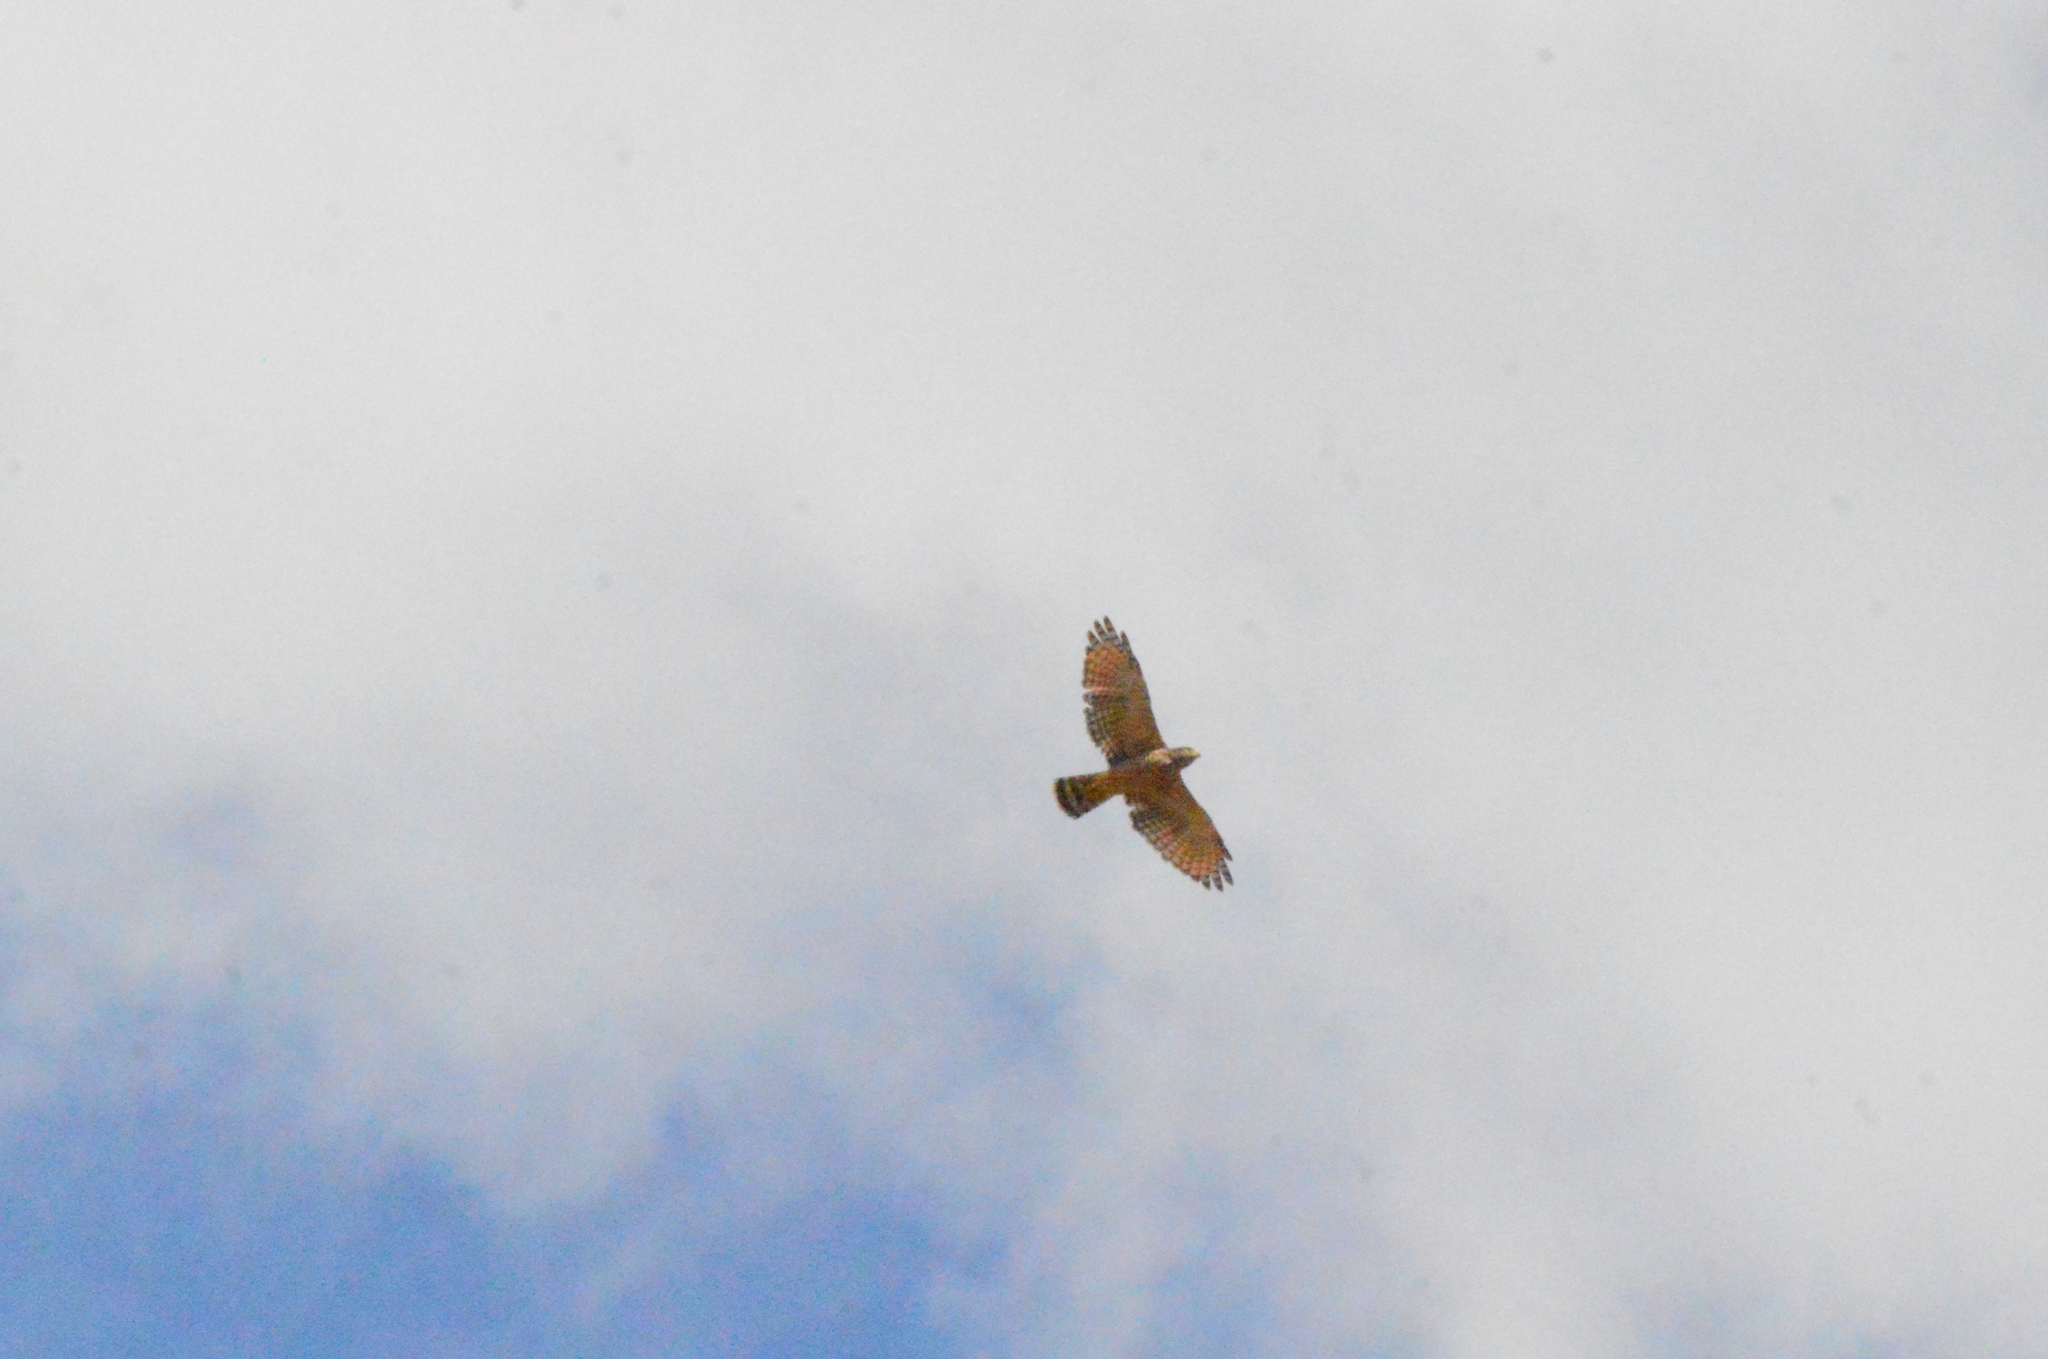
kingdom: Animalia
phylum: Chordata
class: Aves
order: Accipitriformes
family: Accipitridae
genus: Rupornis
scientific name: Rupornis magnirostris
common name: Roadside hawk
